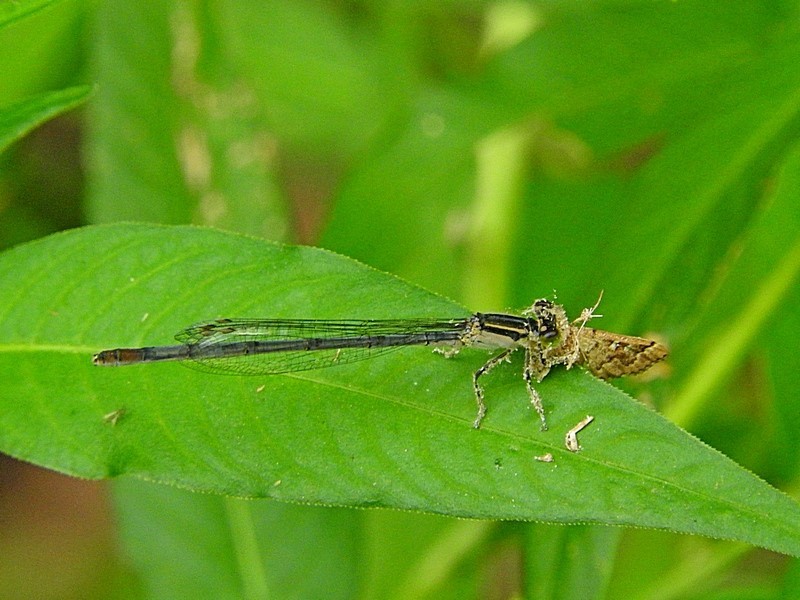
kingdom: Animalia
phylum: Arthropoda
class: Insecta
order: Odonata
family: Coenagrionidae
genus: Ischnura
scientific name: Ischnura heterosticta
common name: Common bluetail
